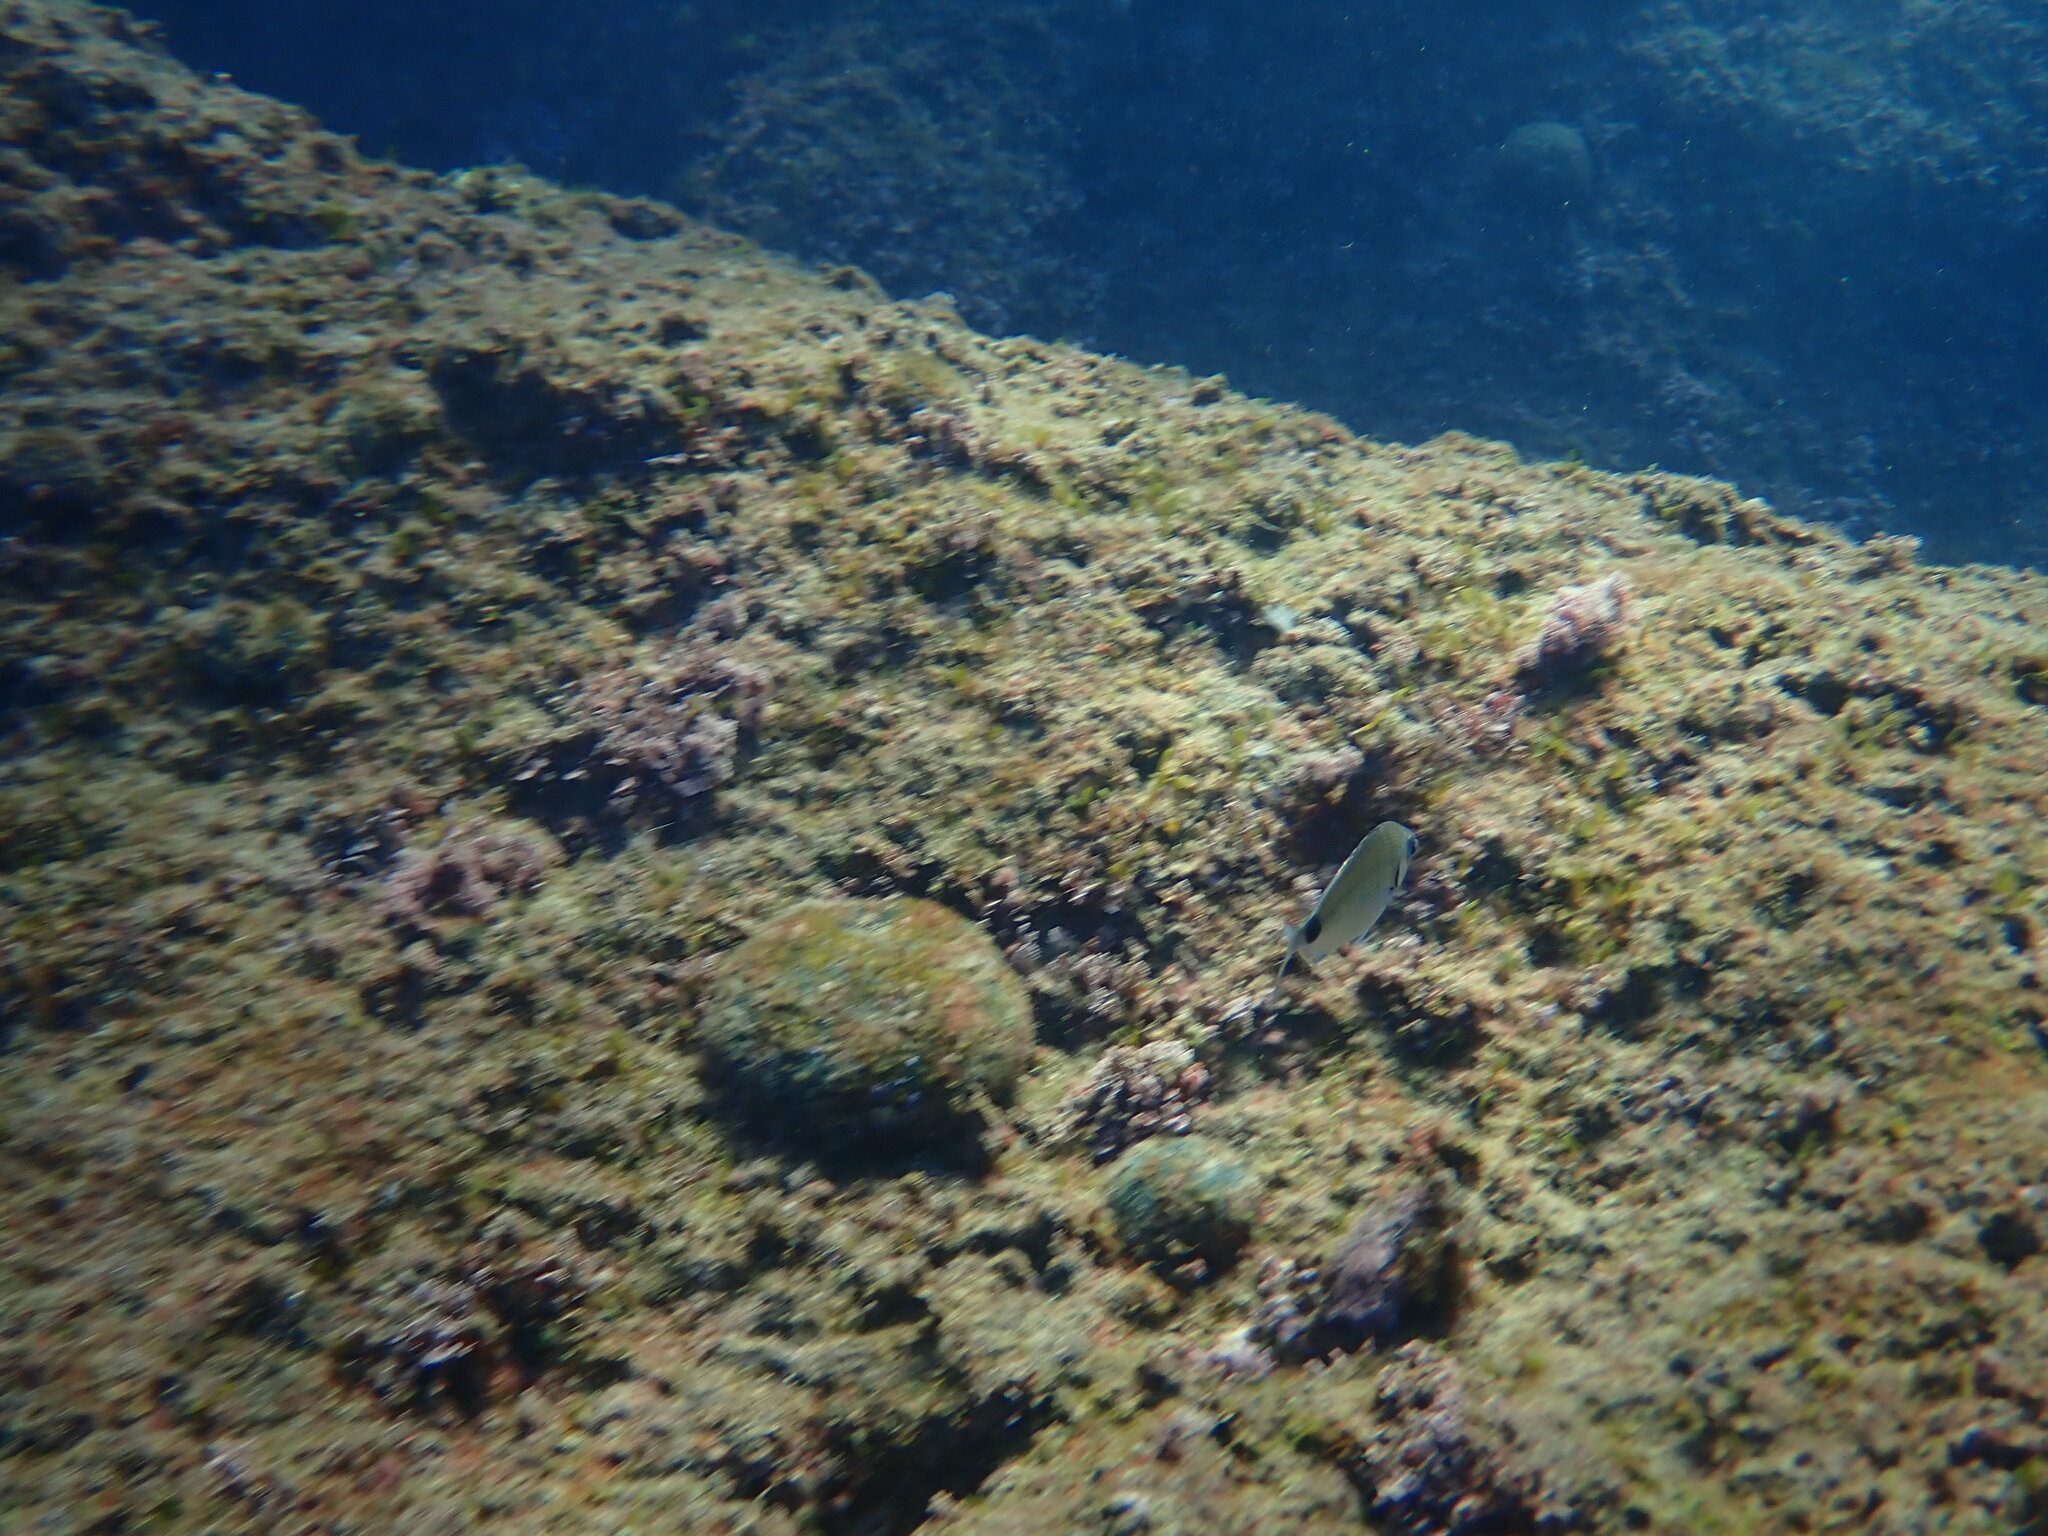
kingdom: Animalia
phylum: Chordata
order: Perciformes
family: Sparidae
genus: Diplodus
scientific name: Diplodus sargus
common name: White seabream
